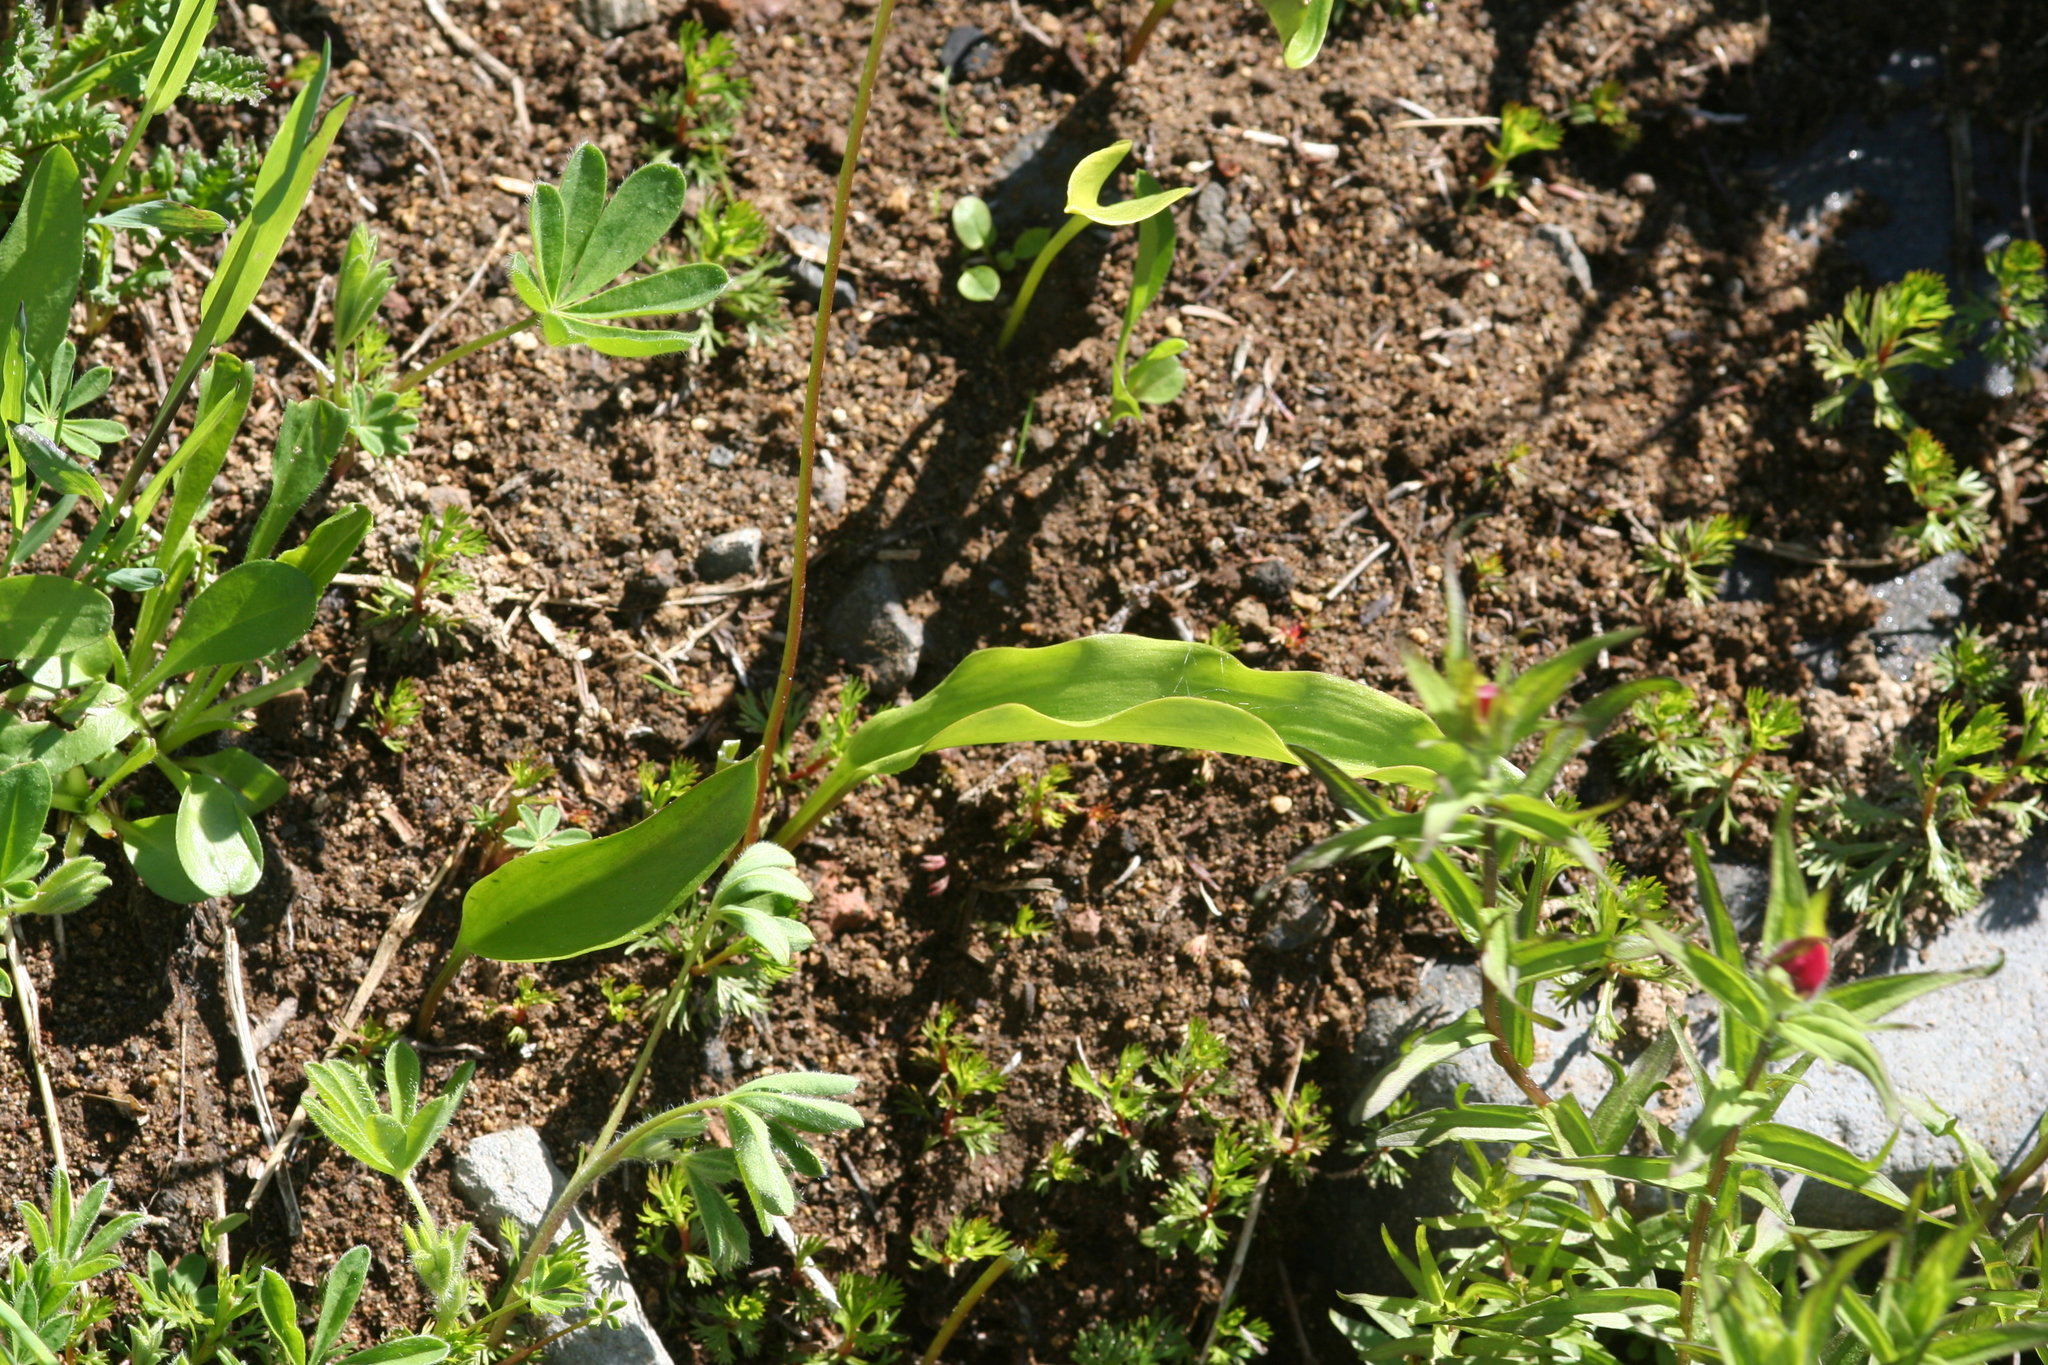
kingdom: Plantae
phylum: Tracheophyta
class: Liliopsida
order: Liliales
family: Liliaceae
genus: Erythronium
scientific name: Erythronium montanum
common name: Avalanche lily
